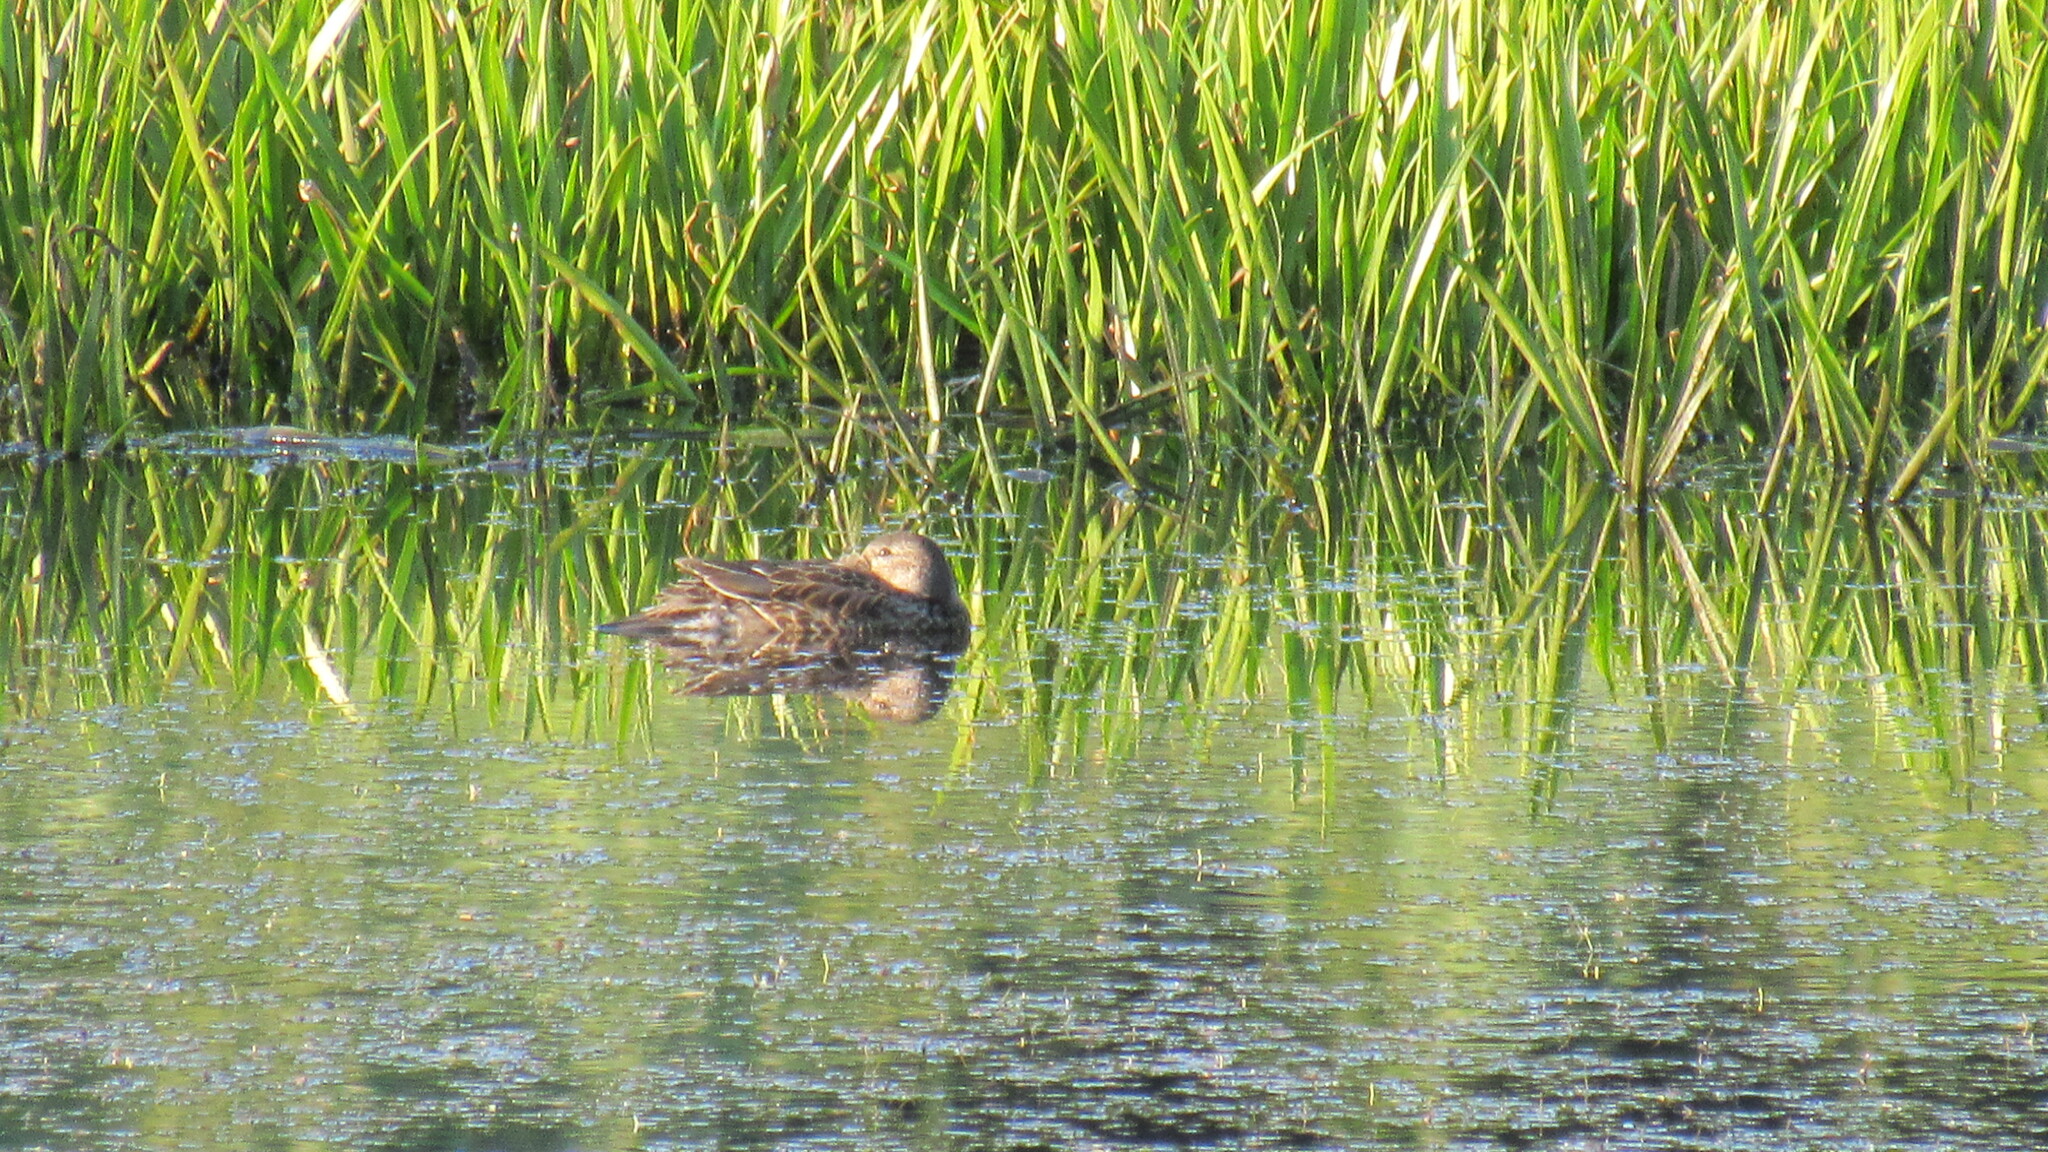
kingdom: Animalia
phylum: Chordata
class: Aves
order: Anseriformes
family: Anatidae
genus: Anas
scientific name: Anas crecca
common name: Eurasian teal
